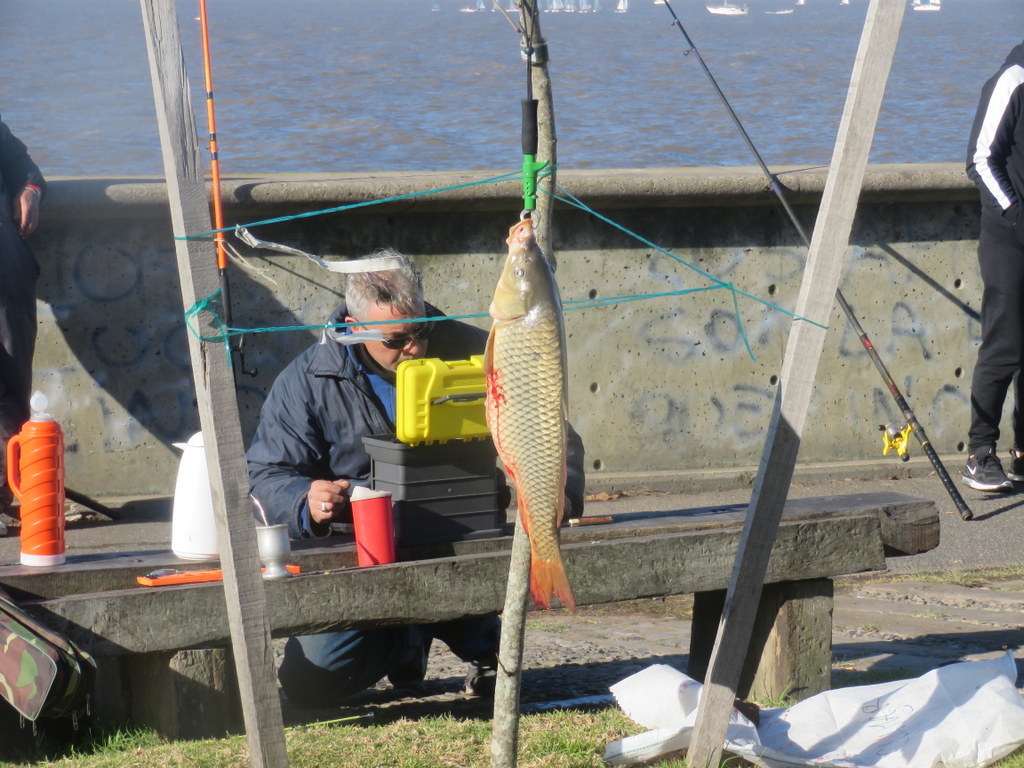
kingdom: Animalia
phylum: Chordata
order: Cypriniformes
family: Cyprinidae
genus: Cyprinus
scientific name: Cyprinus carpio
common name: Common carp
